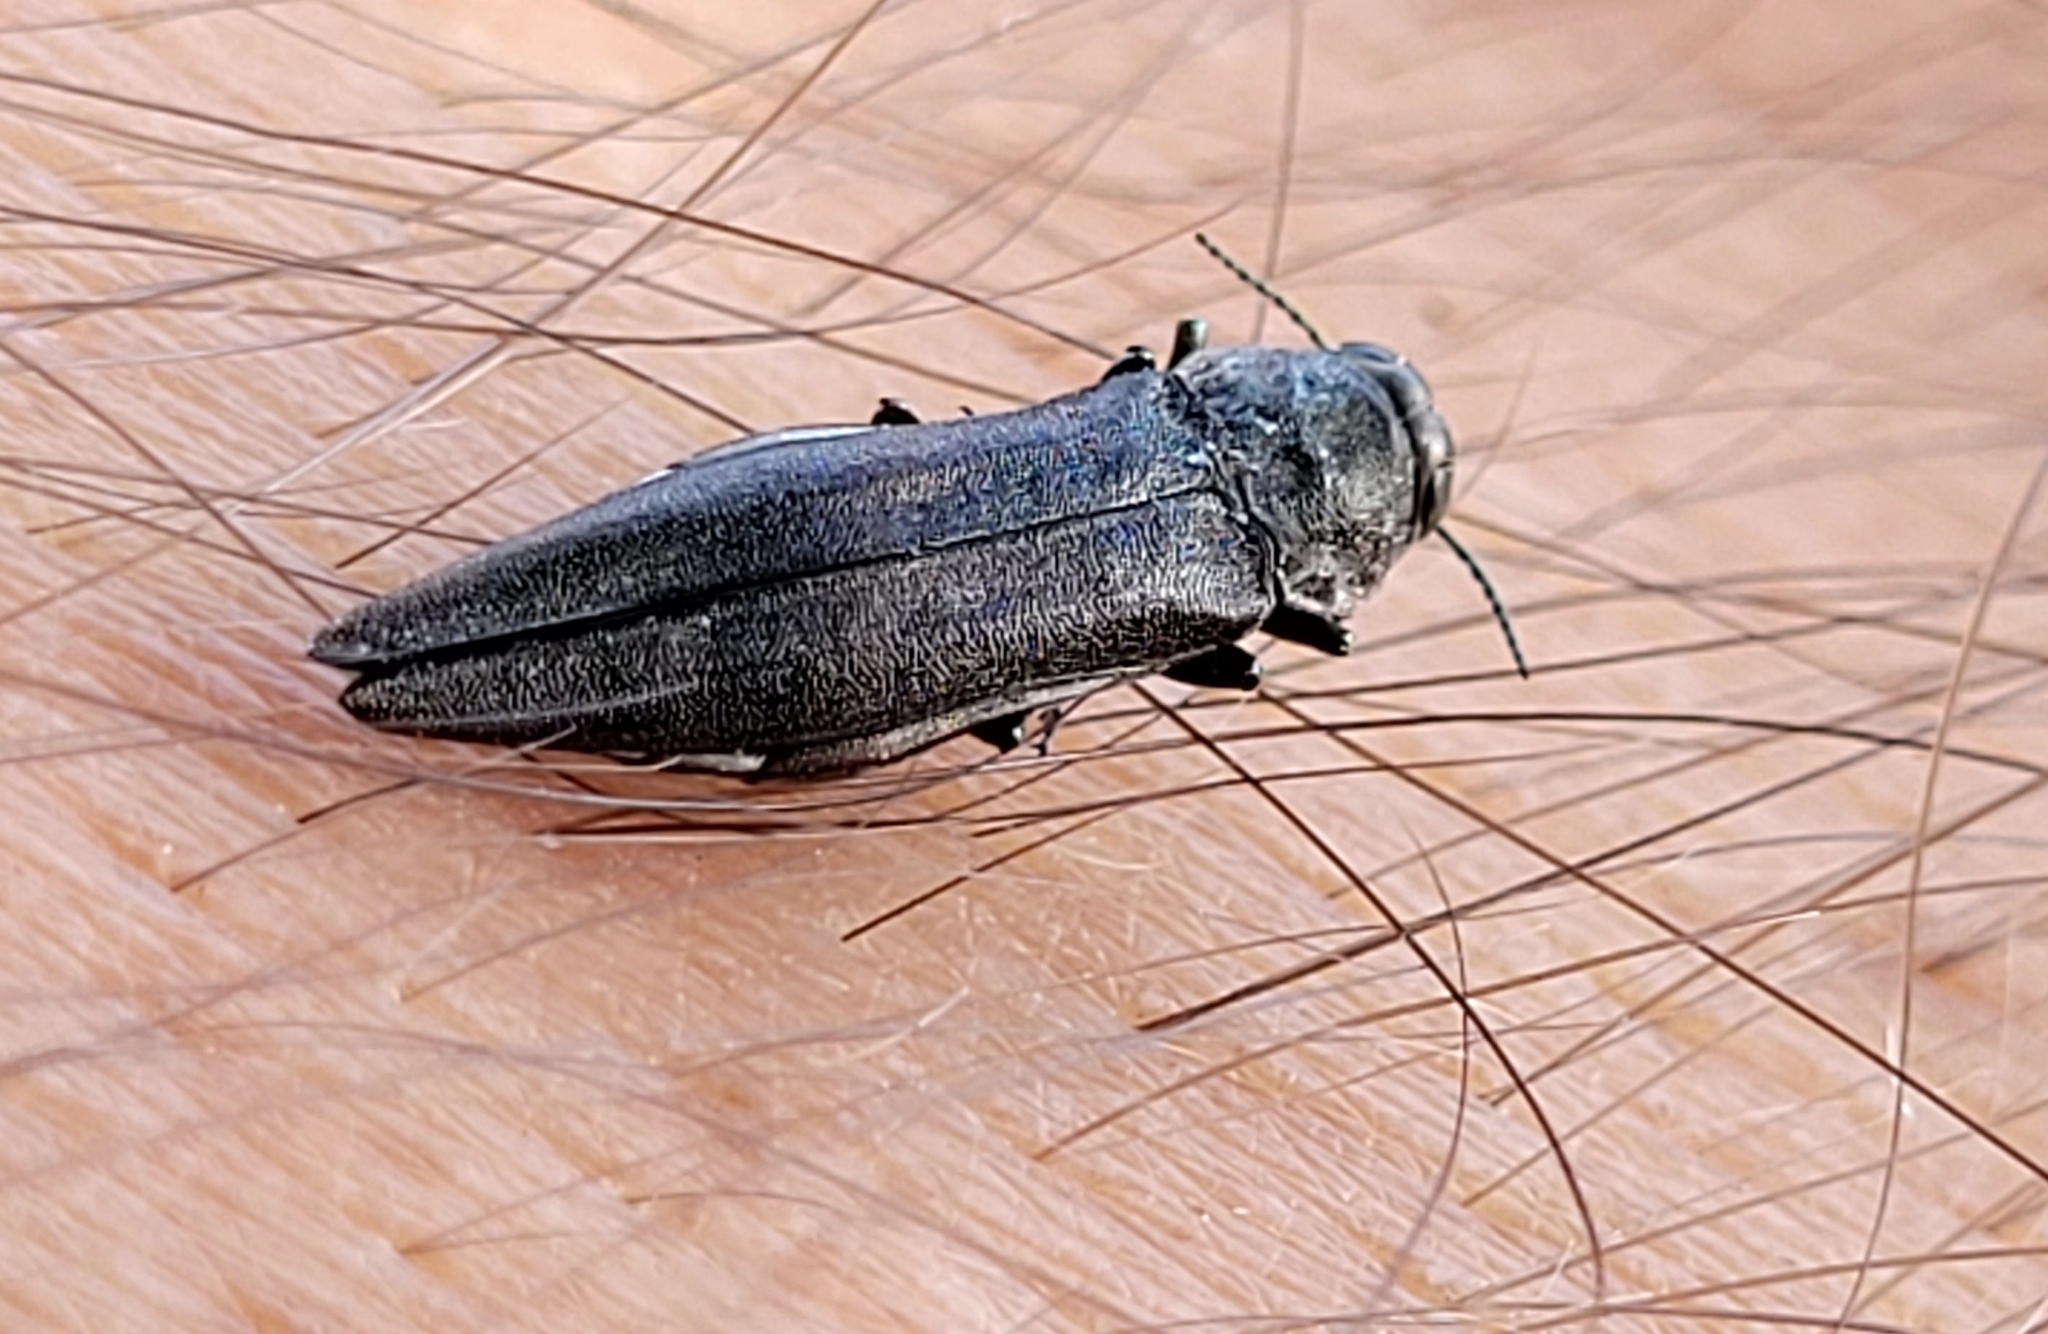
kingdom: Animalia
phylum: Arthropoda
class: Insecta
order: Coleoptera
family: Buprestidae
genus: Agrilus
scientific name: Agrilus granulatus
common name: Granulate poplar borer
